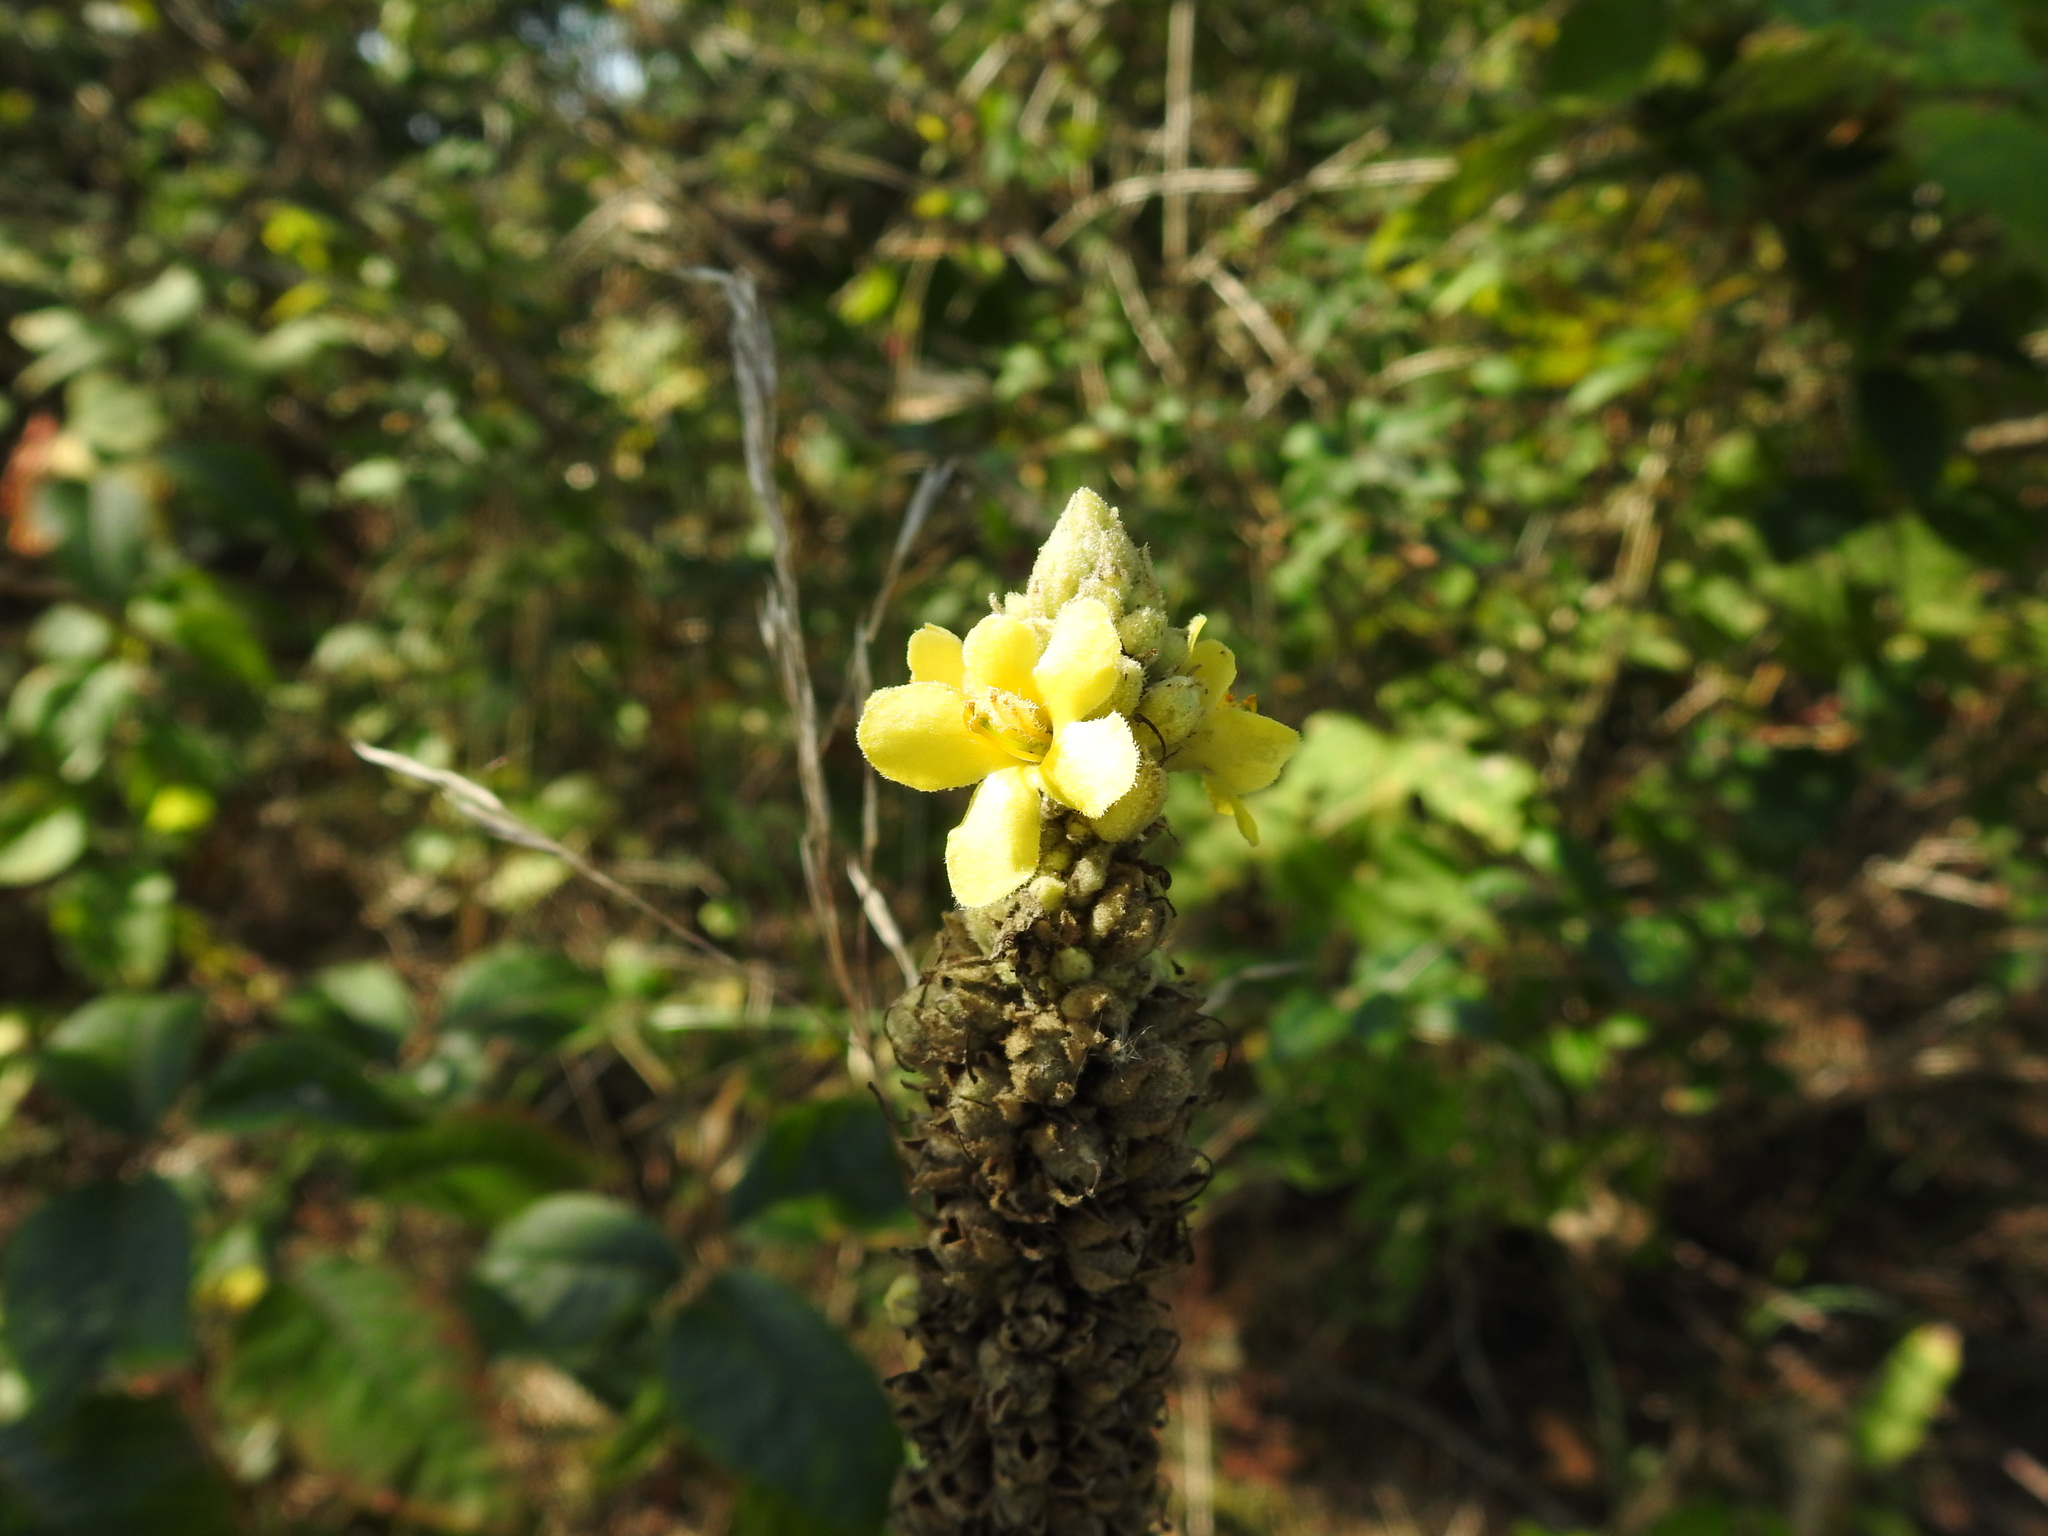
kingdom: Plantae
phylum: Tracheophyta
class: Magnoliopsida
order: Lamiales
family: Scrophulariaceae
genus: Verbascum
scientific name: Verbascum thapsus
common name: Common mullein
